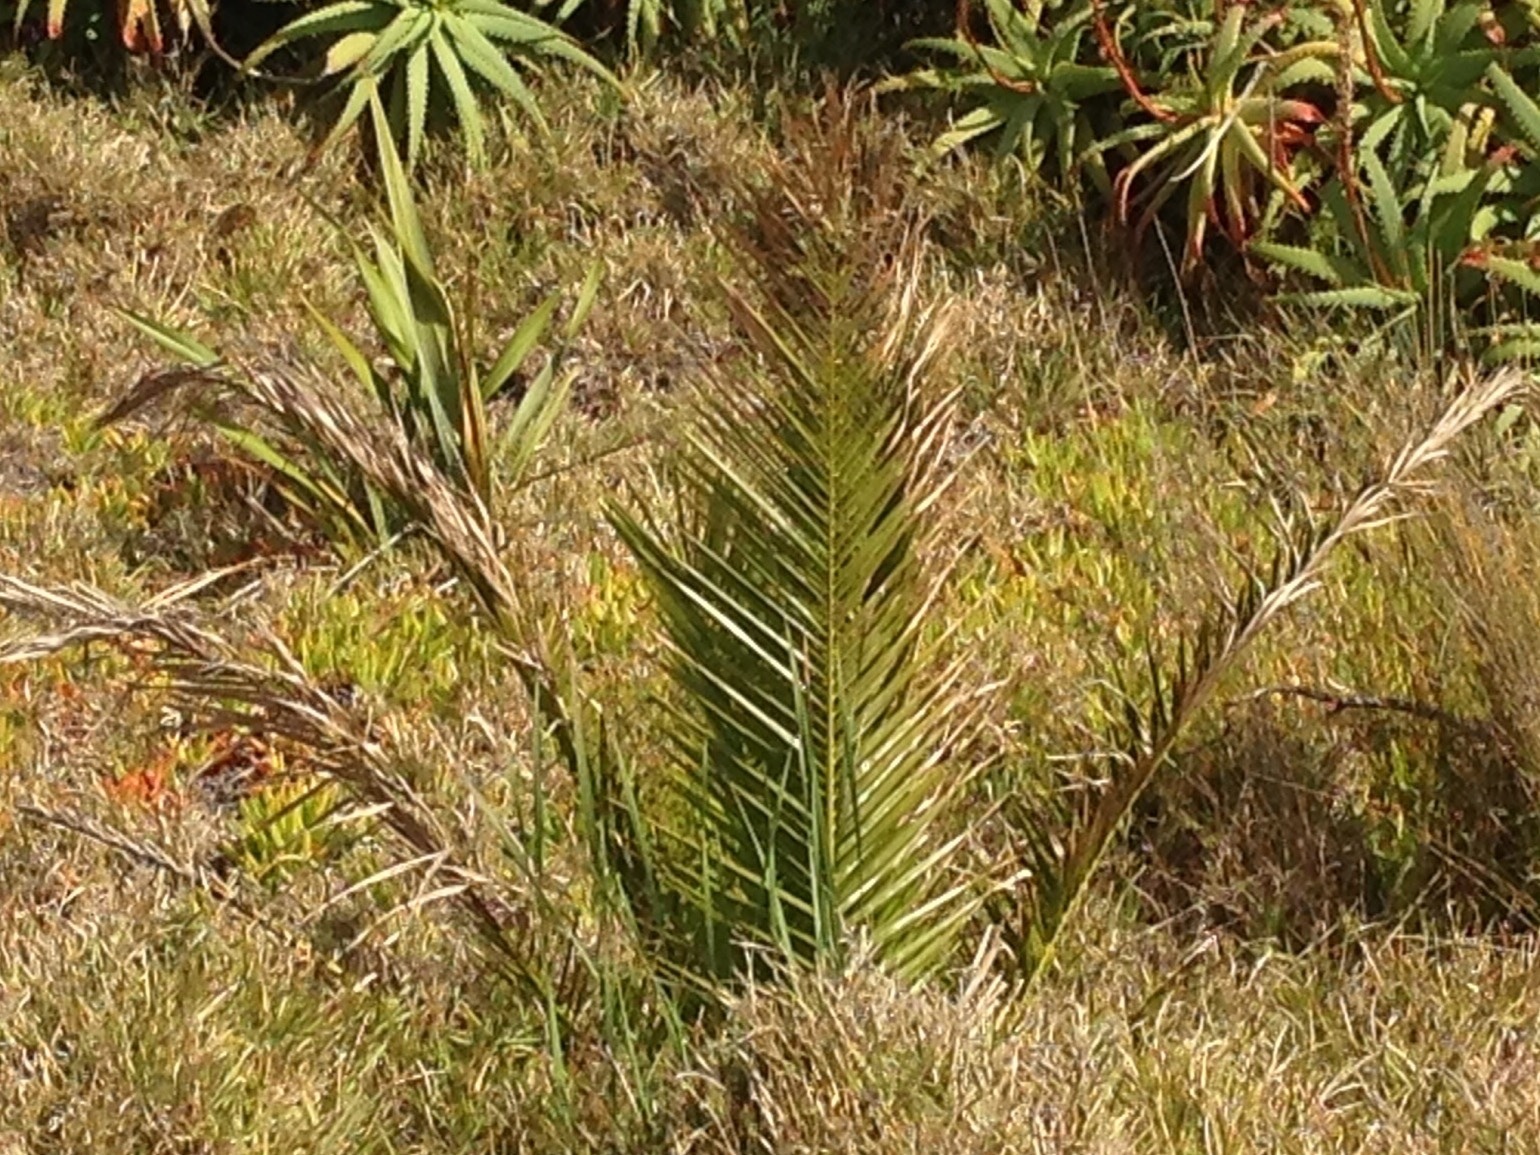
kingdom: Plantae
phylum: Tracheophyta
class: Liliopsida
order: Arecales
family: Arecaceae
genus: Phoenix
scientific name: Phoenix canariensis
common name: Canary island date palm
